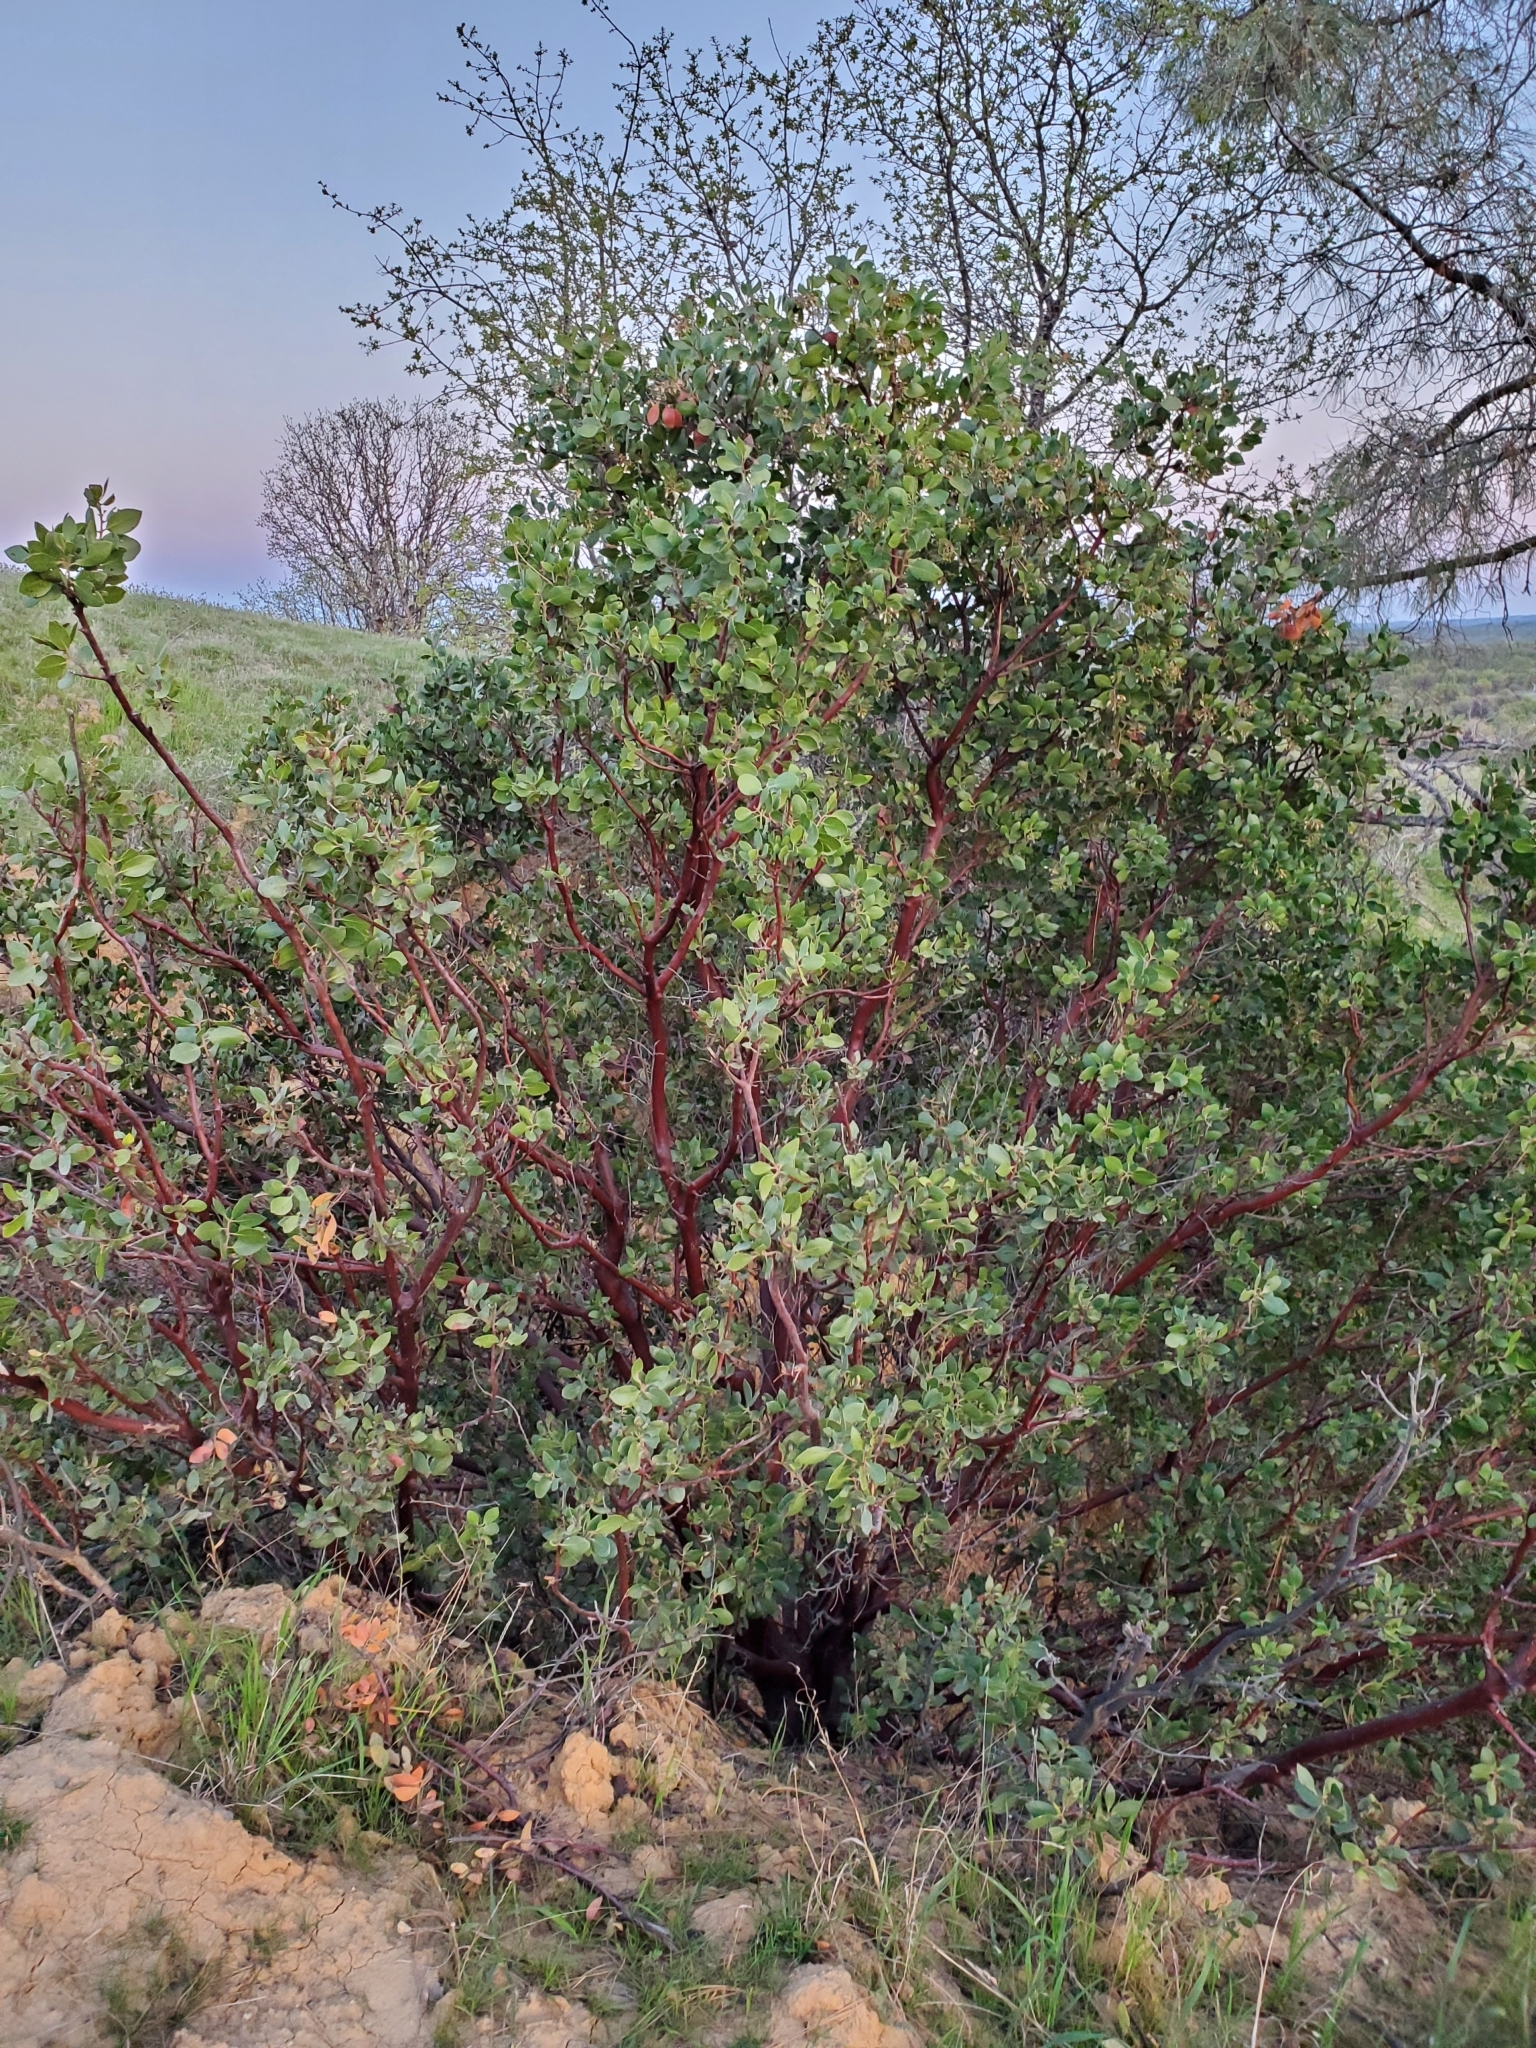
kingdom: Plantae
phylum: Tracheophyta
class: Magnoliopsida
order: Ericales
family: Ericaceae
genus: Arctostaphylos
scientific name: Arctostaphylos manzanita
